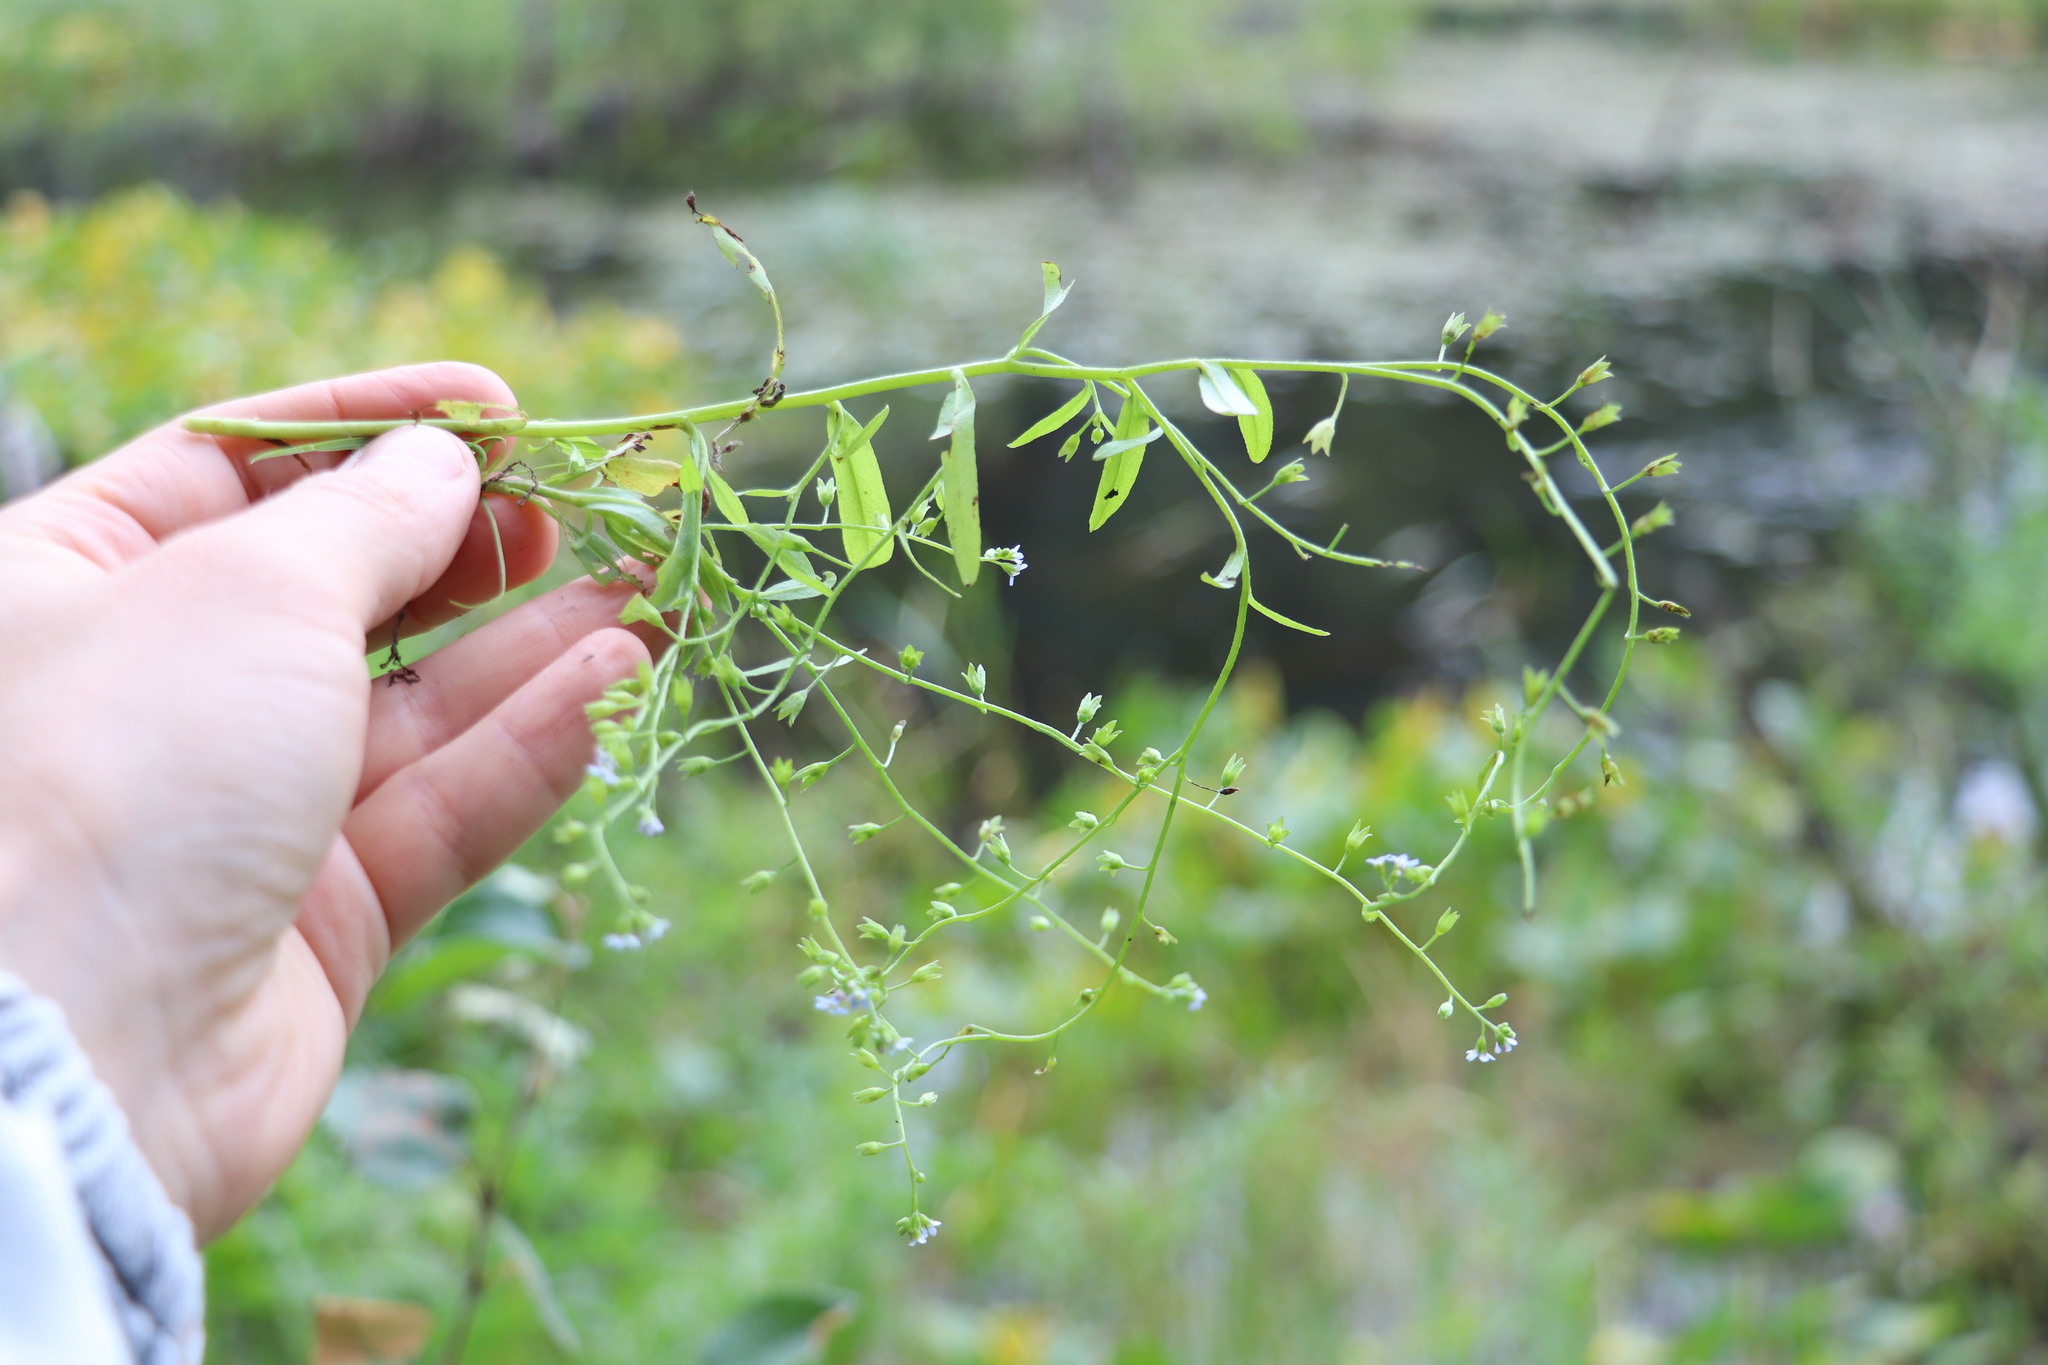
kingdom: Plantae
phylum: Tracheophyta
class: Magnoliopsida
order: Boraginales
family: Boraginaceae
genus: Myosotis
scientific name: Myosotis scorpioides
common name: Water forget-me-not
